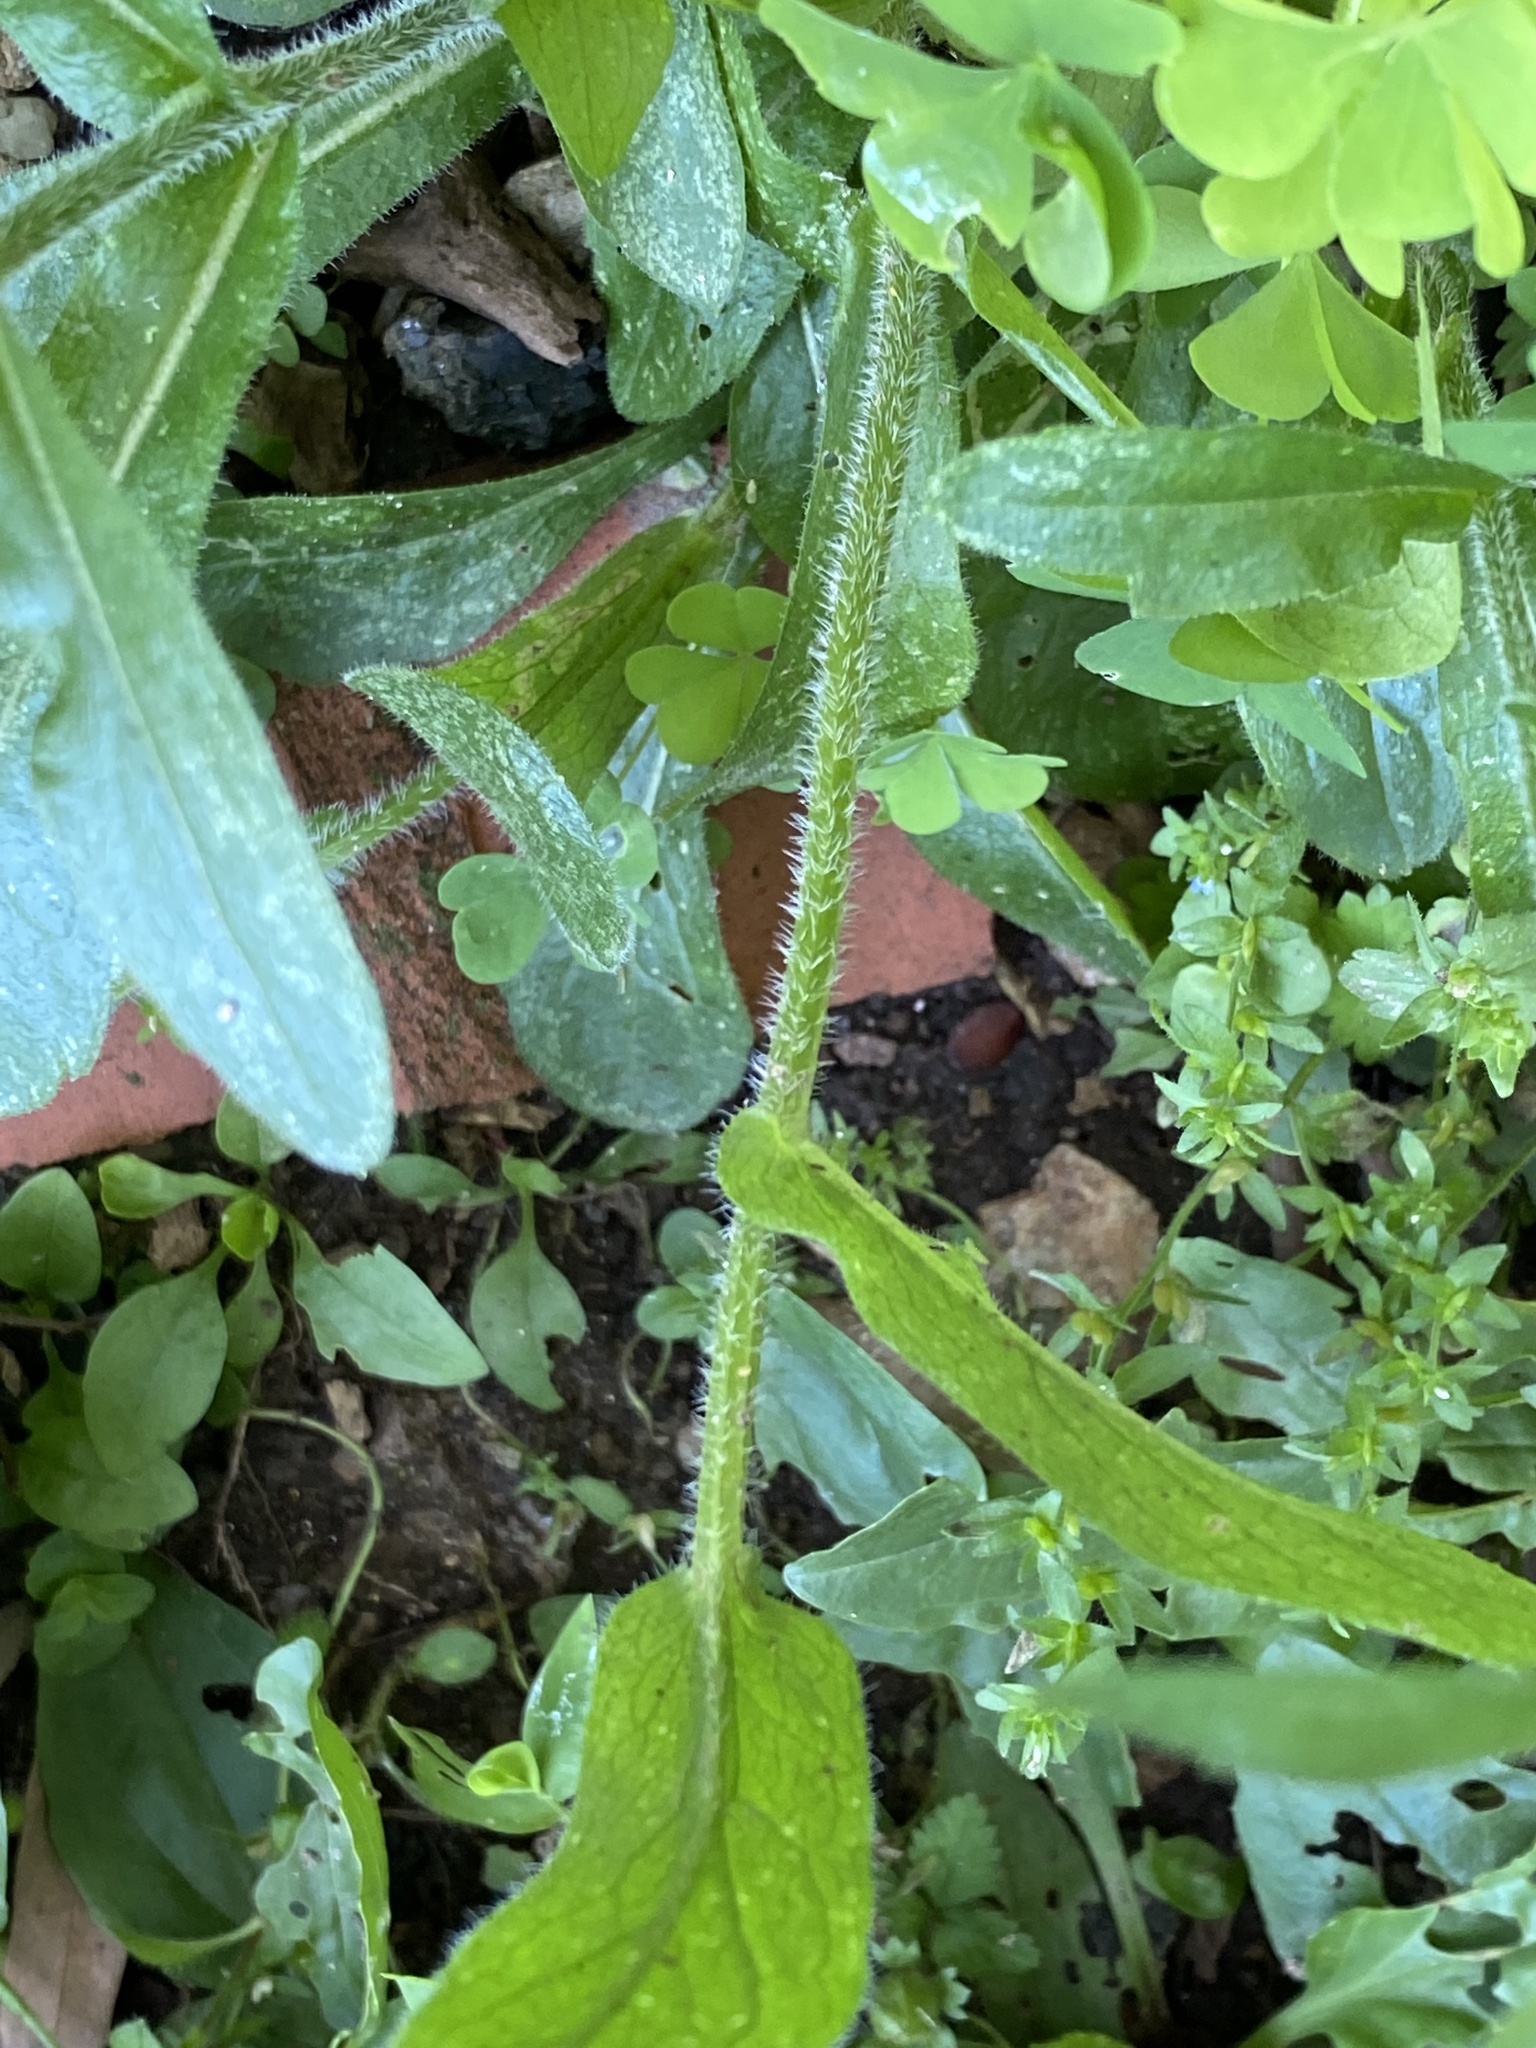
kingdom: Plantae
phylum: Tracheophyta
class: Magnoliopsida
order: Asterales
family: Asteraceae
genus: Erigeron
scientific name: Erigeron philadelphicus
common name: Robin's-plantain
